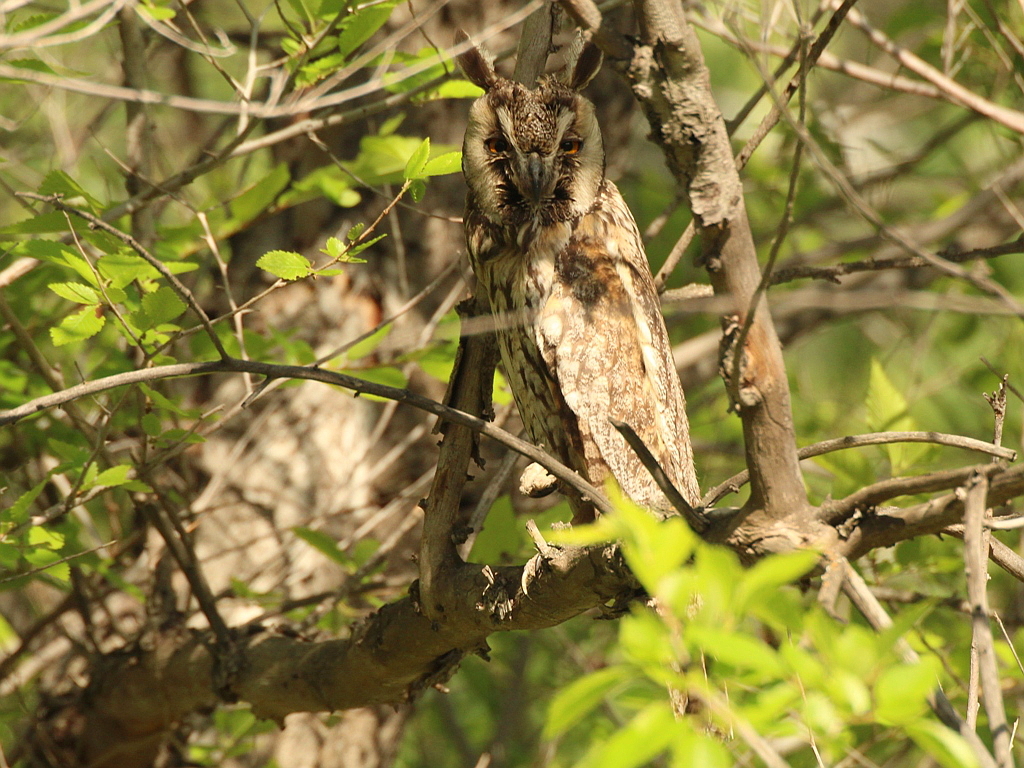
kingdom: Animalia
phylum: Chordata
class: Aves
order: Strigiformes
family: Strigidae
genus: Asio
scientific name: Asio otus
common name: Long-eared owl
